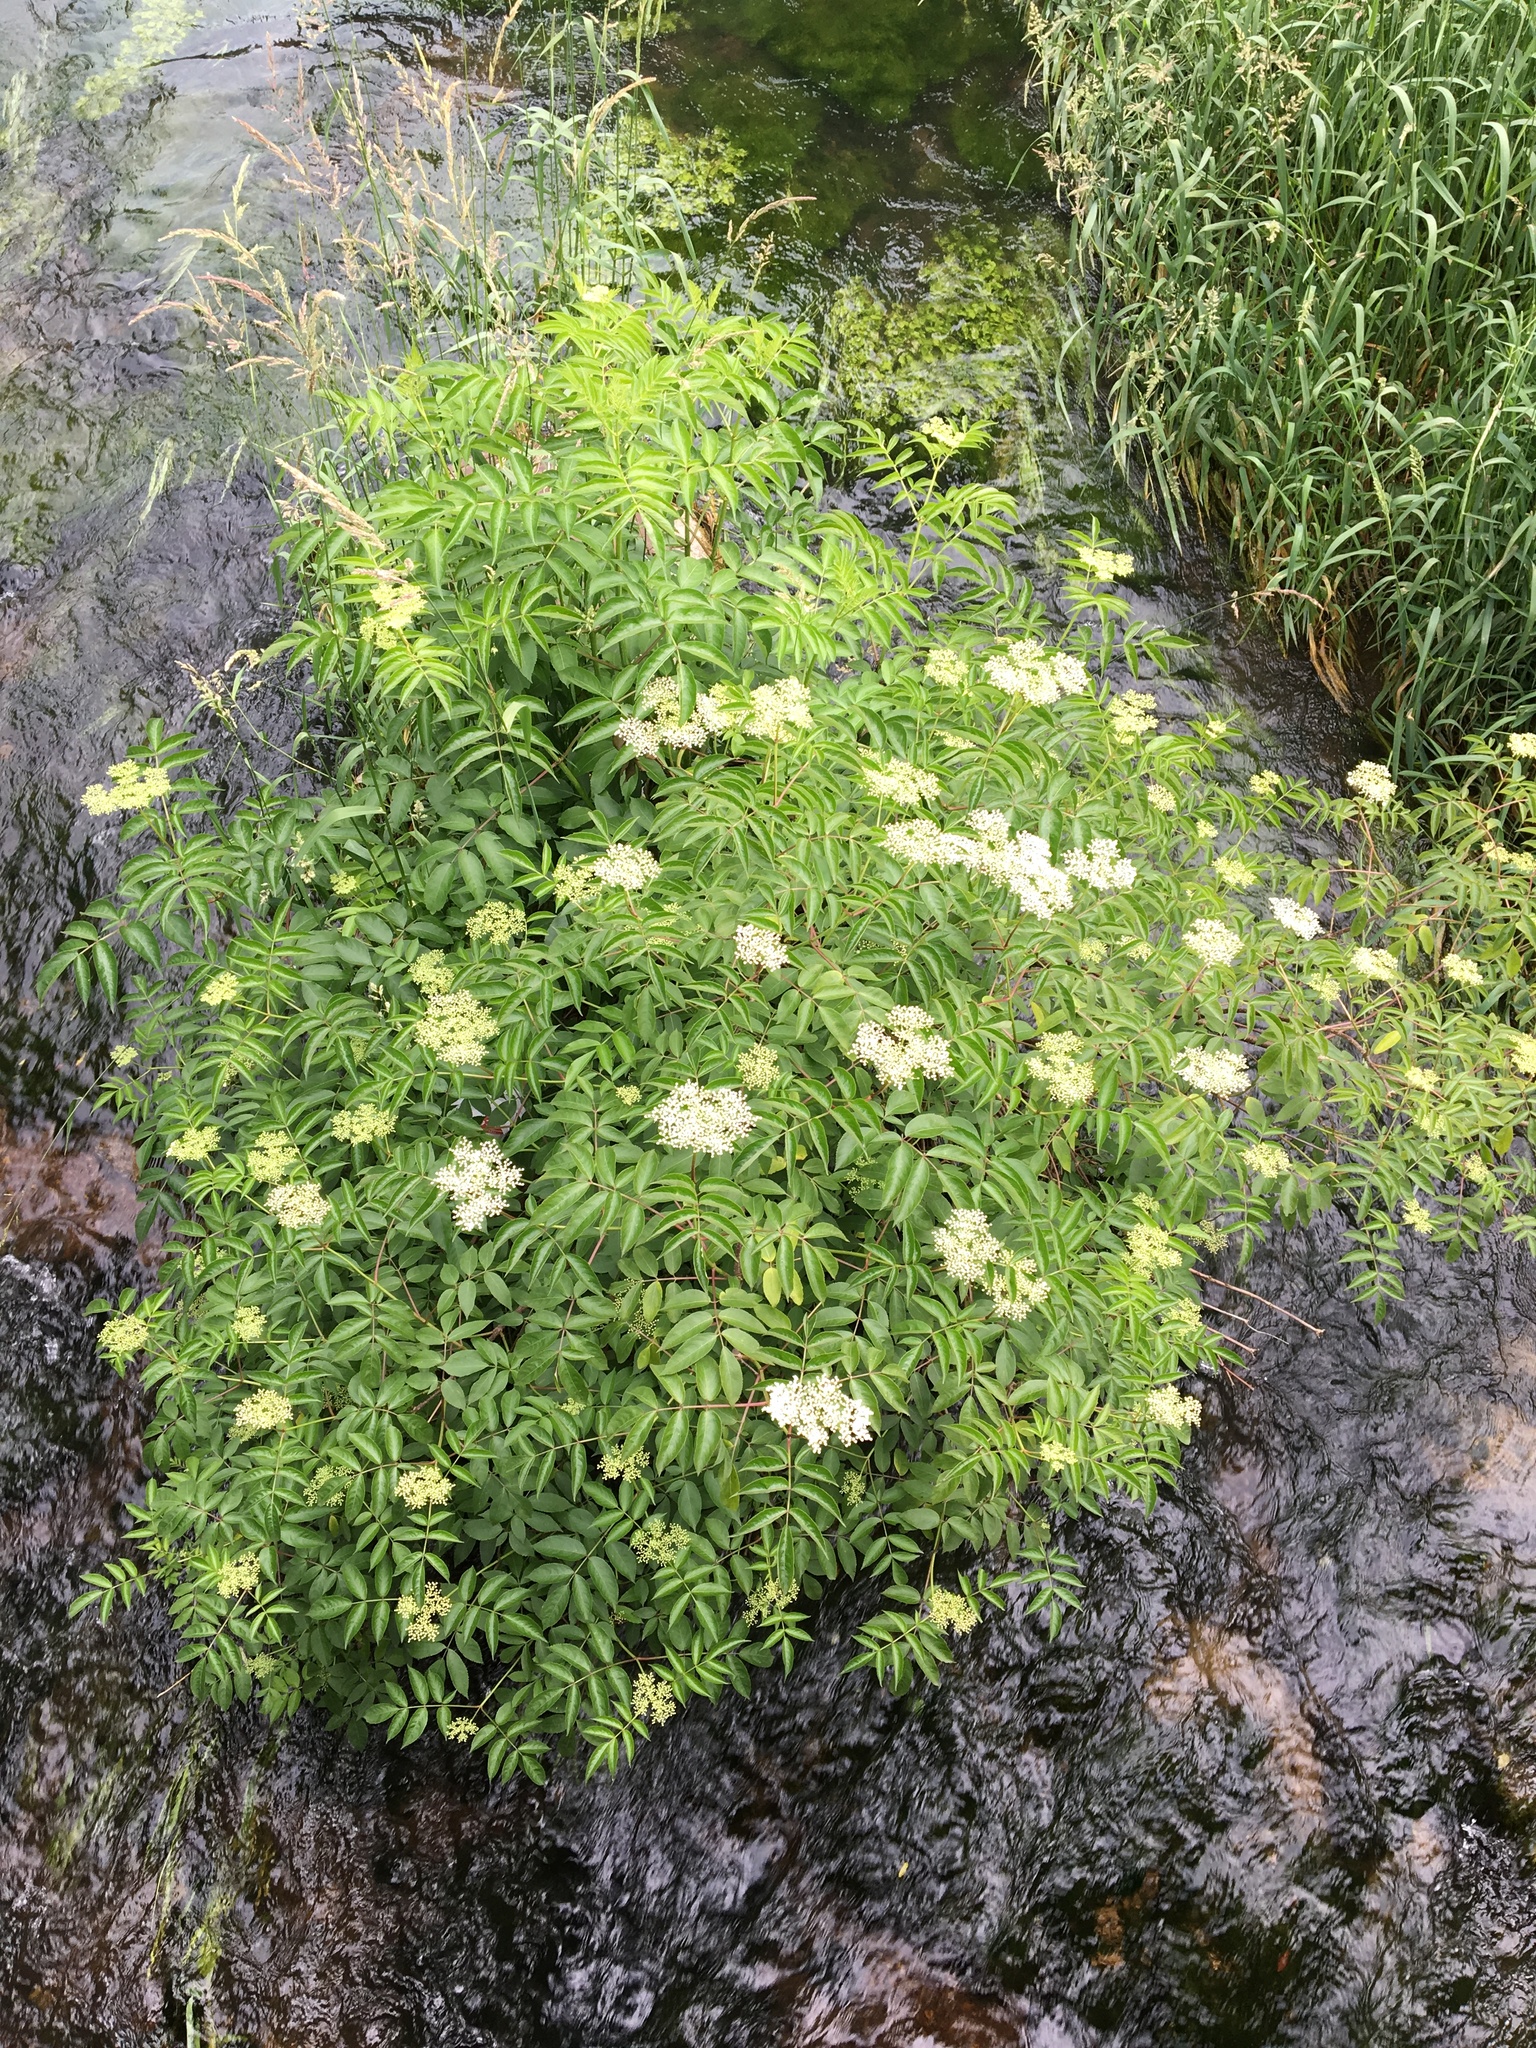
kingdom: Plantae
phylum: Tracheophyta
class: Magnoliopsida
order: Apiales
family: Apiaceae
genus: Cicuta
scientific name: Cicuta maculata
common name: Spotted cowbane
